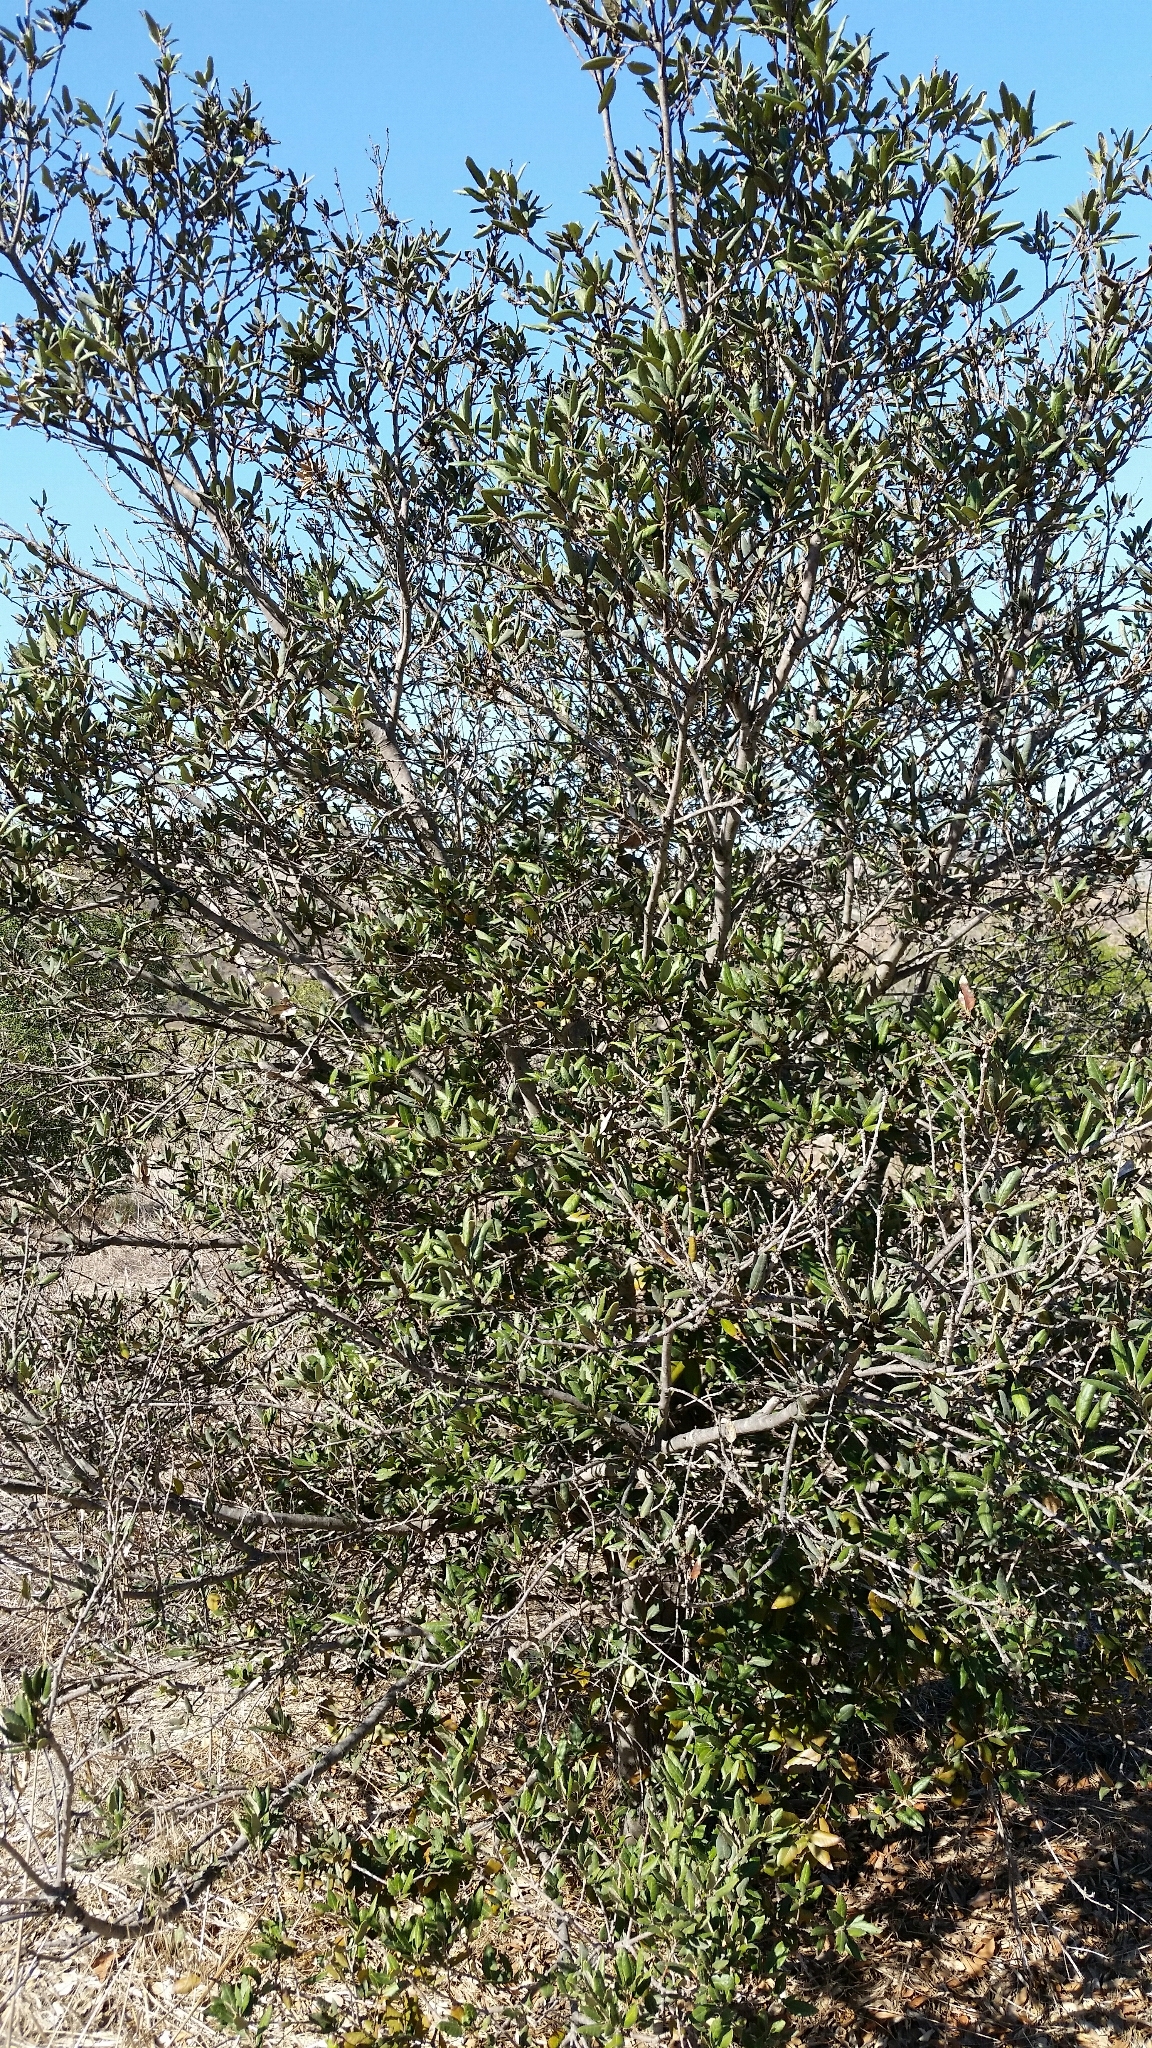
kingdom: Plantae
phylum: Tracheophyta
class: Magnoliopsida
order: Fagales
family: Fagaceae
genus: Quercus
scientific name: Quercus ilex
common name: Evergreen oak
